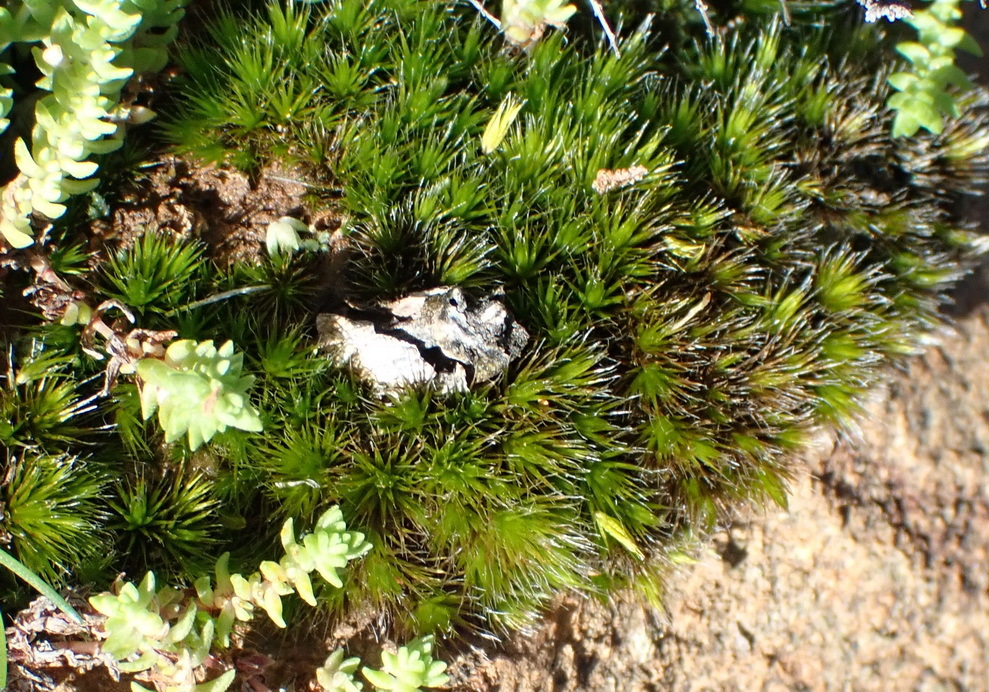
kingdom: Plantae
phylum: Bryophyta
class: Bryopsida
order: Dicranales
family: Leucobryaceae
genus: Campylopus
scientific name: Campylopus pilifer
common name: Campylopus moss
